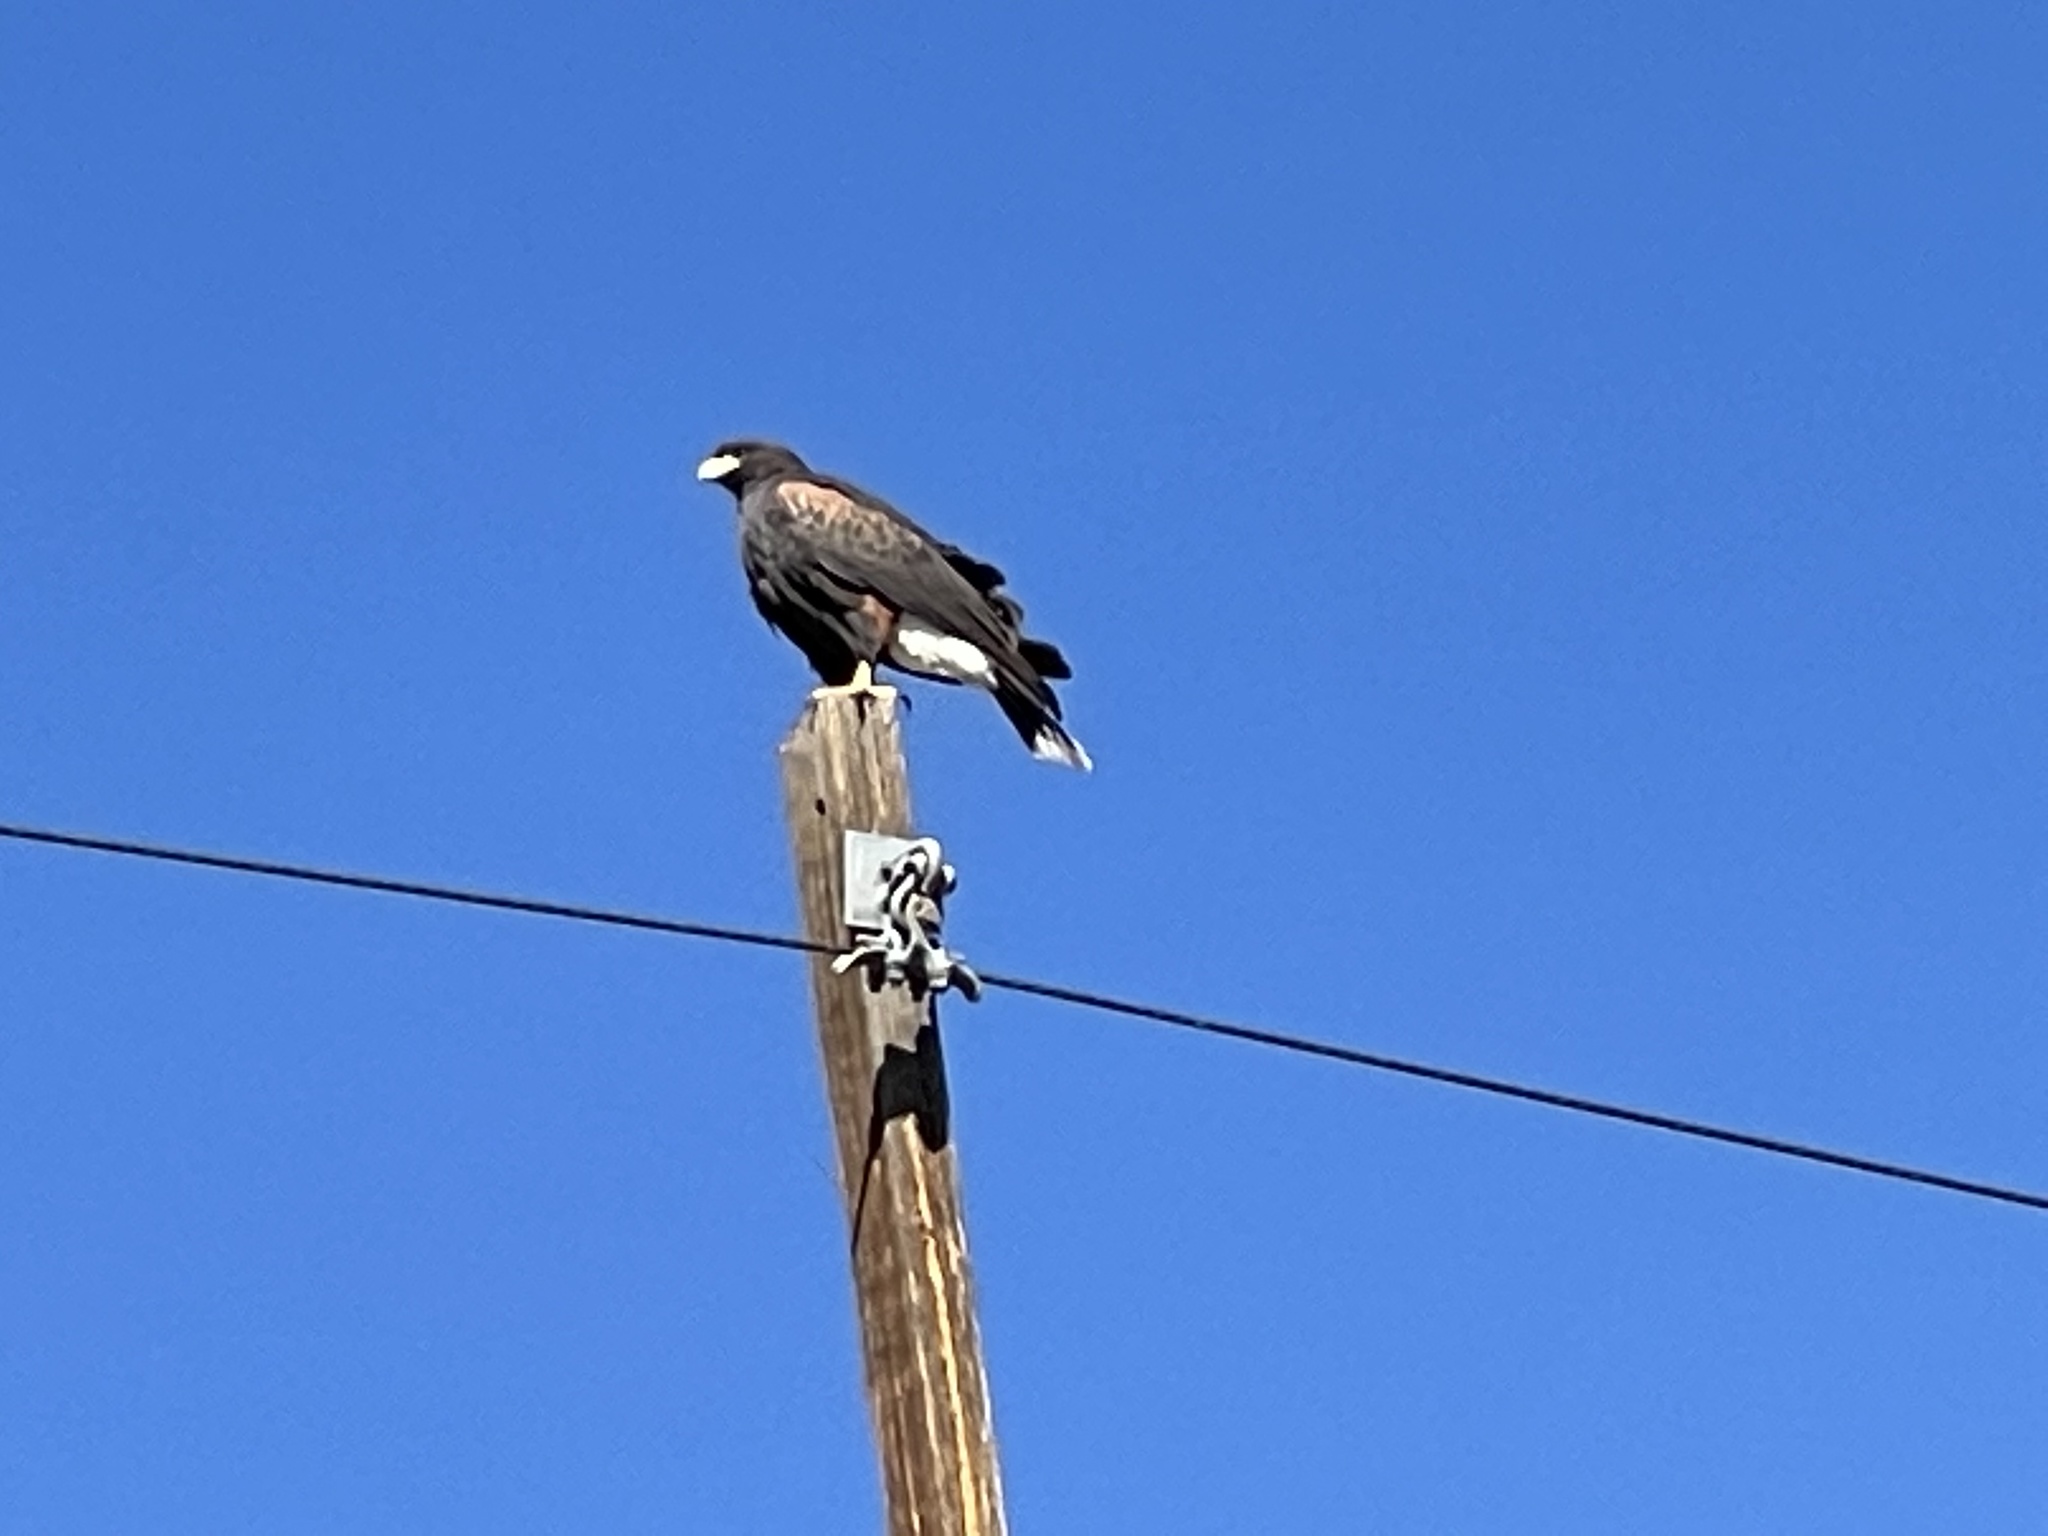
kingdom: Animalia
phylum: Chordata
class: Aves
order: Accipitriformes
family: Accipitridae
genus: Parabuteo
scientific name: Parabuteo unicinctus
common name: Harris's hawk
